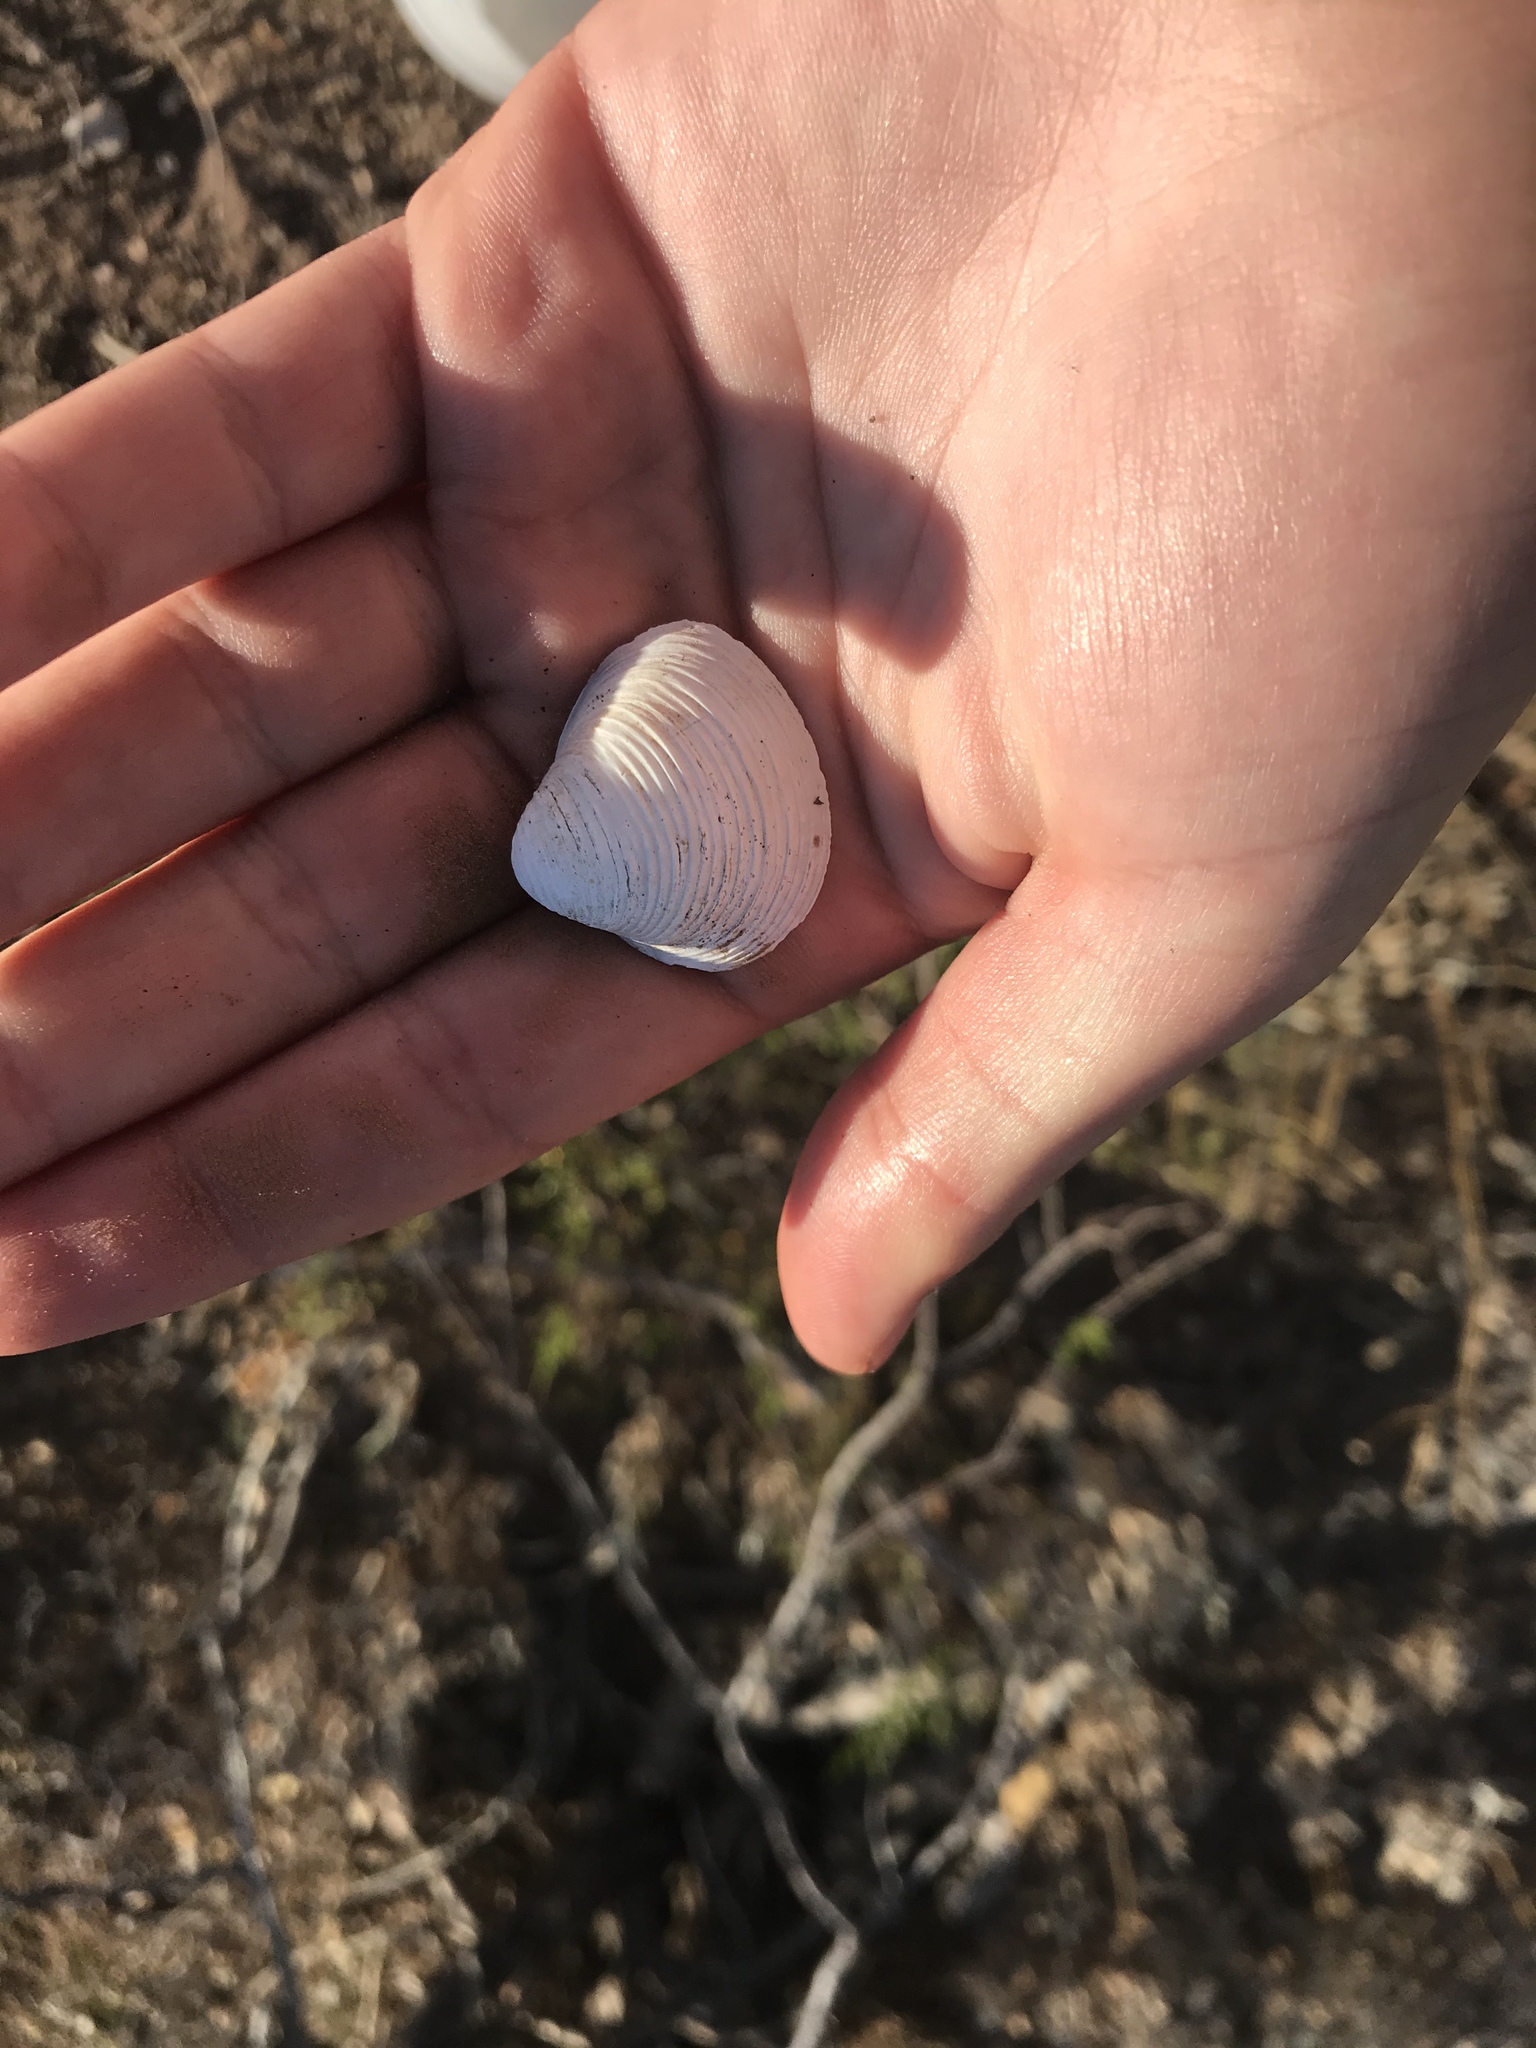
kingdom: Animalia
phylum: Mollusca
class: Bivalvia
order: Venerida
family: Cyrenidae
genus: Corbicula
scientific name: Corbicula fluminea
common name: Asian clam
